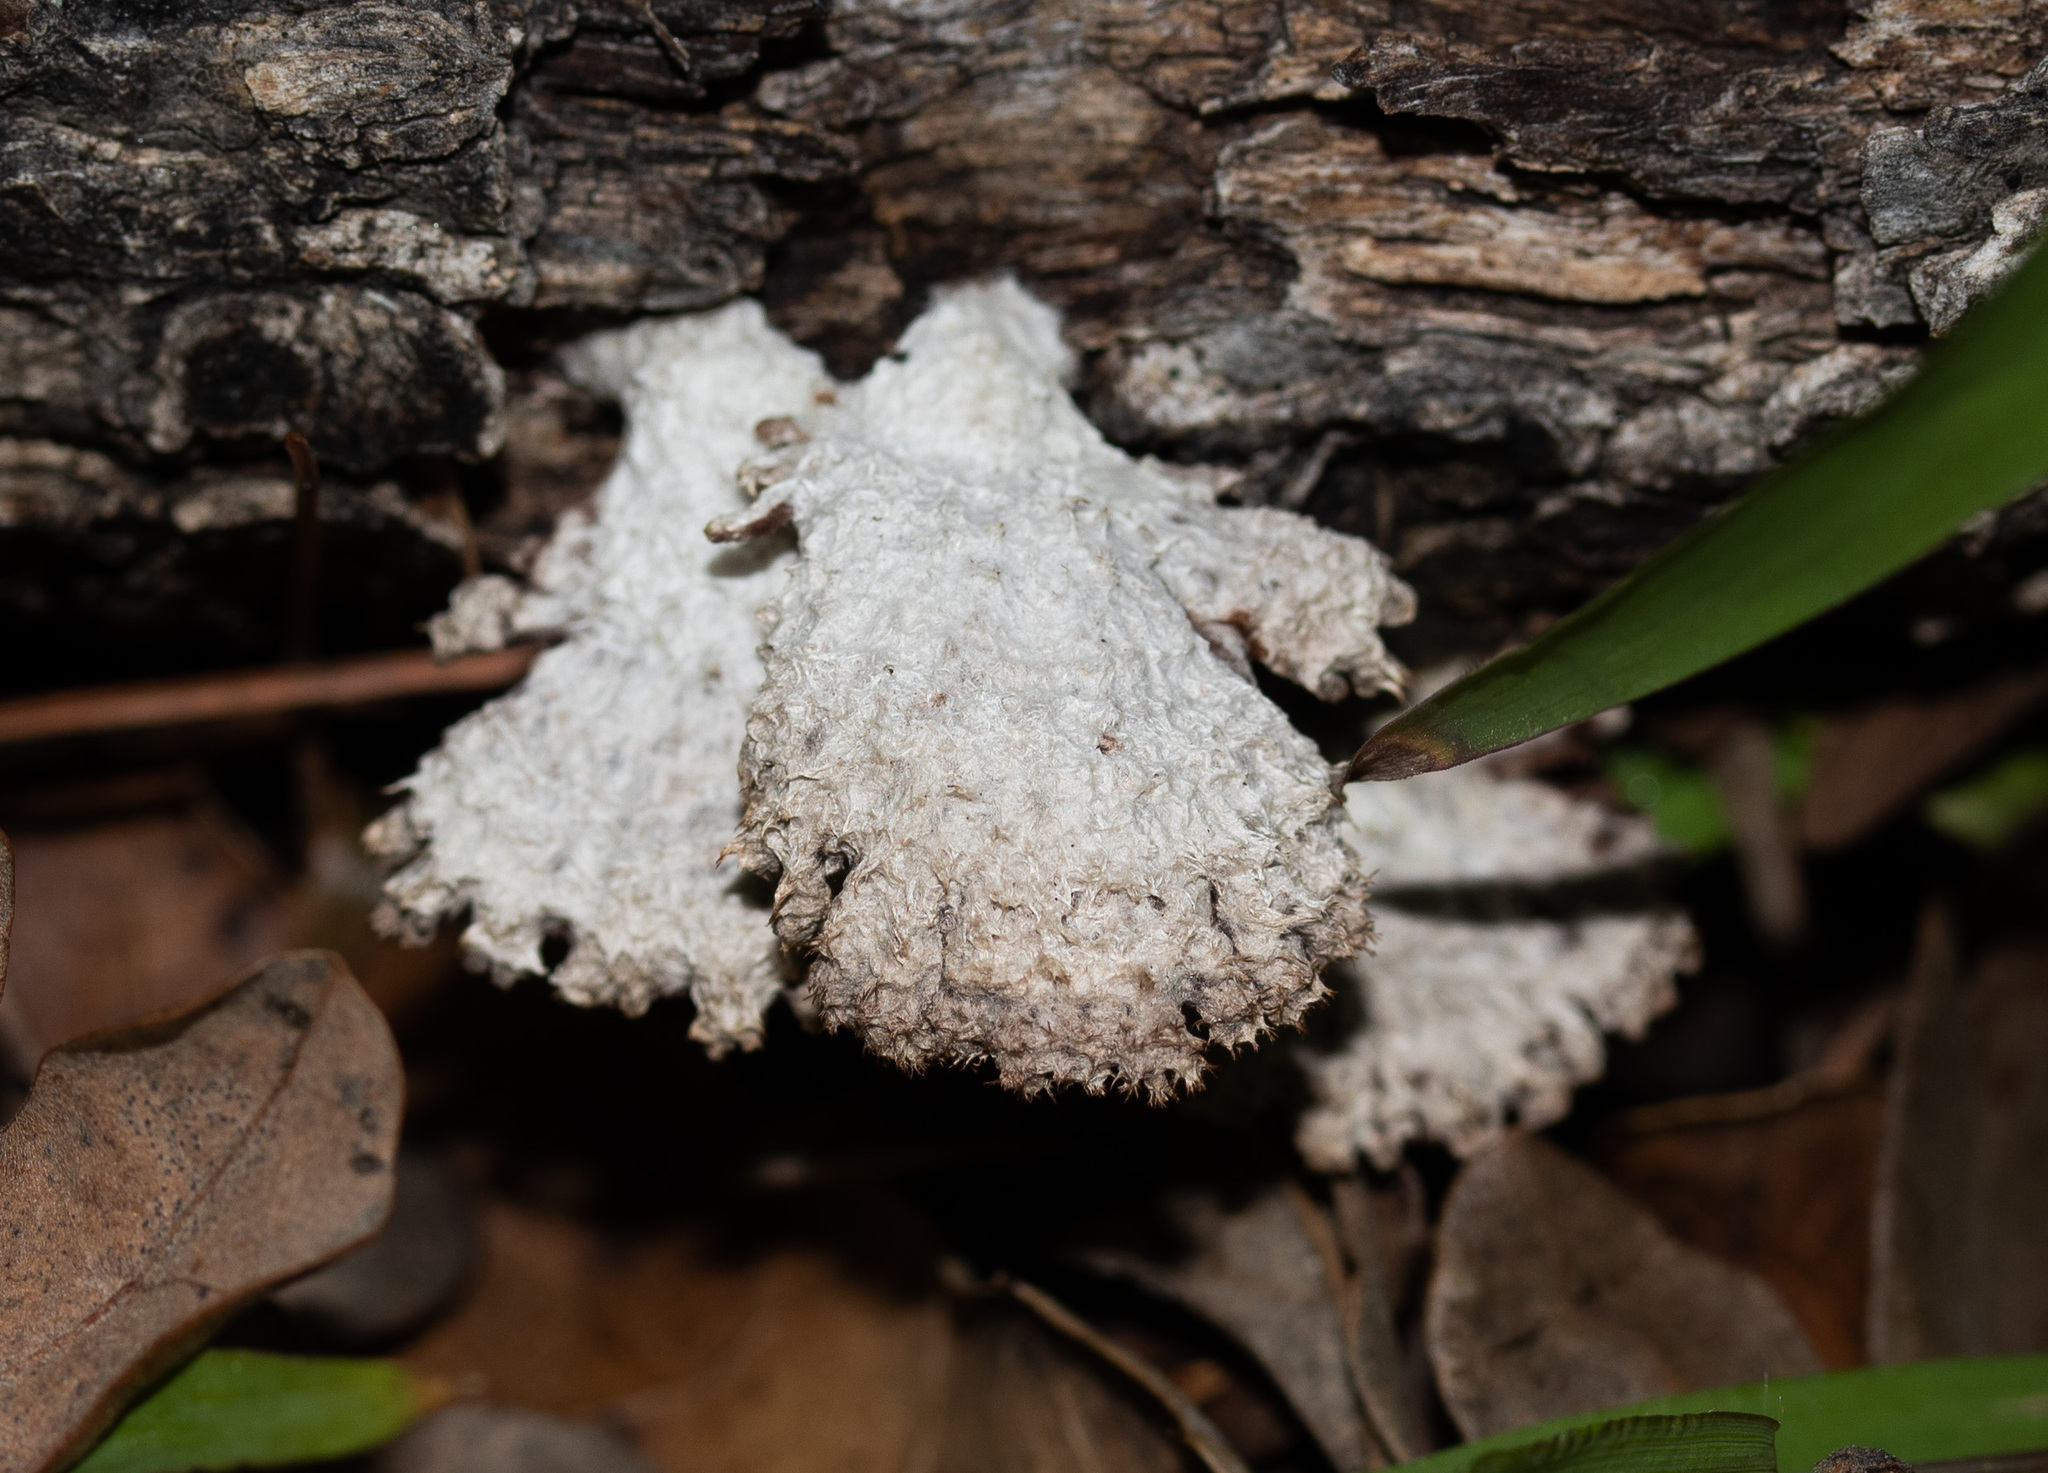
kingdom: Fungi
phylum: Basidiomycota
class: Agaricomycetes
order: Agaricales
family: Schizophyllaceae
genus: Schizophyllum
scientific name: Schizophyllum commune
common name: Common porecrust
